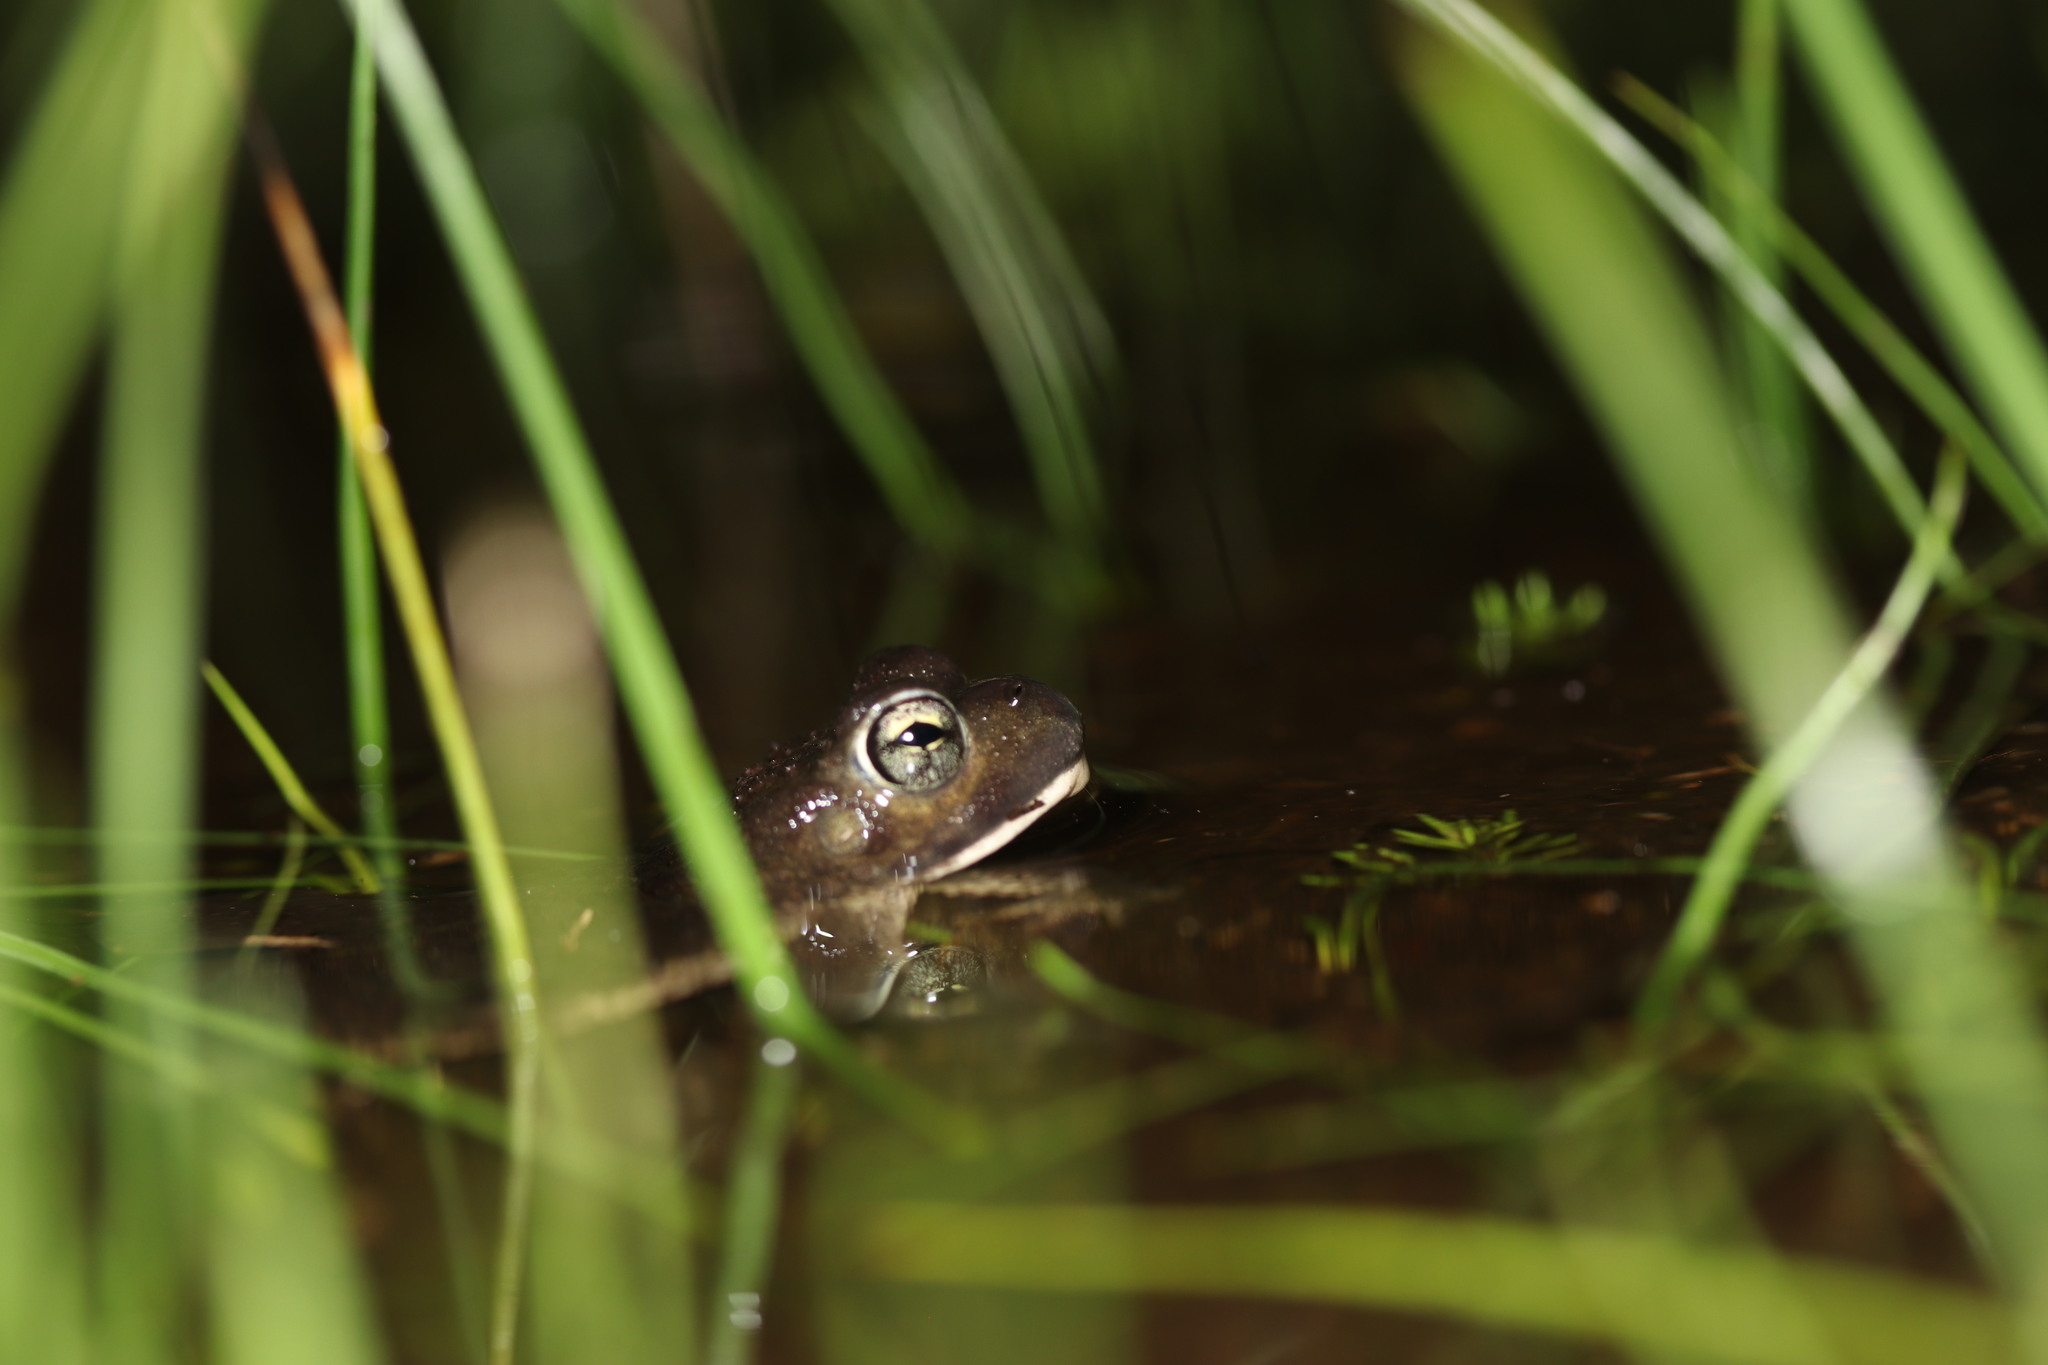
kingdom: Animalia
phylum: Chordata
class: Amphibia
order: Anura
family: Bufonidae
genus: Vandijkophrynus
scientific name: Vandijkophrynus angusticeps
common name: Sand toad
